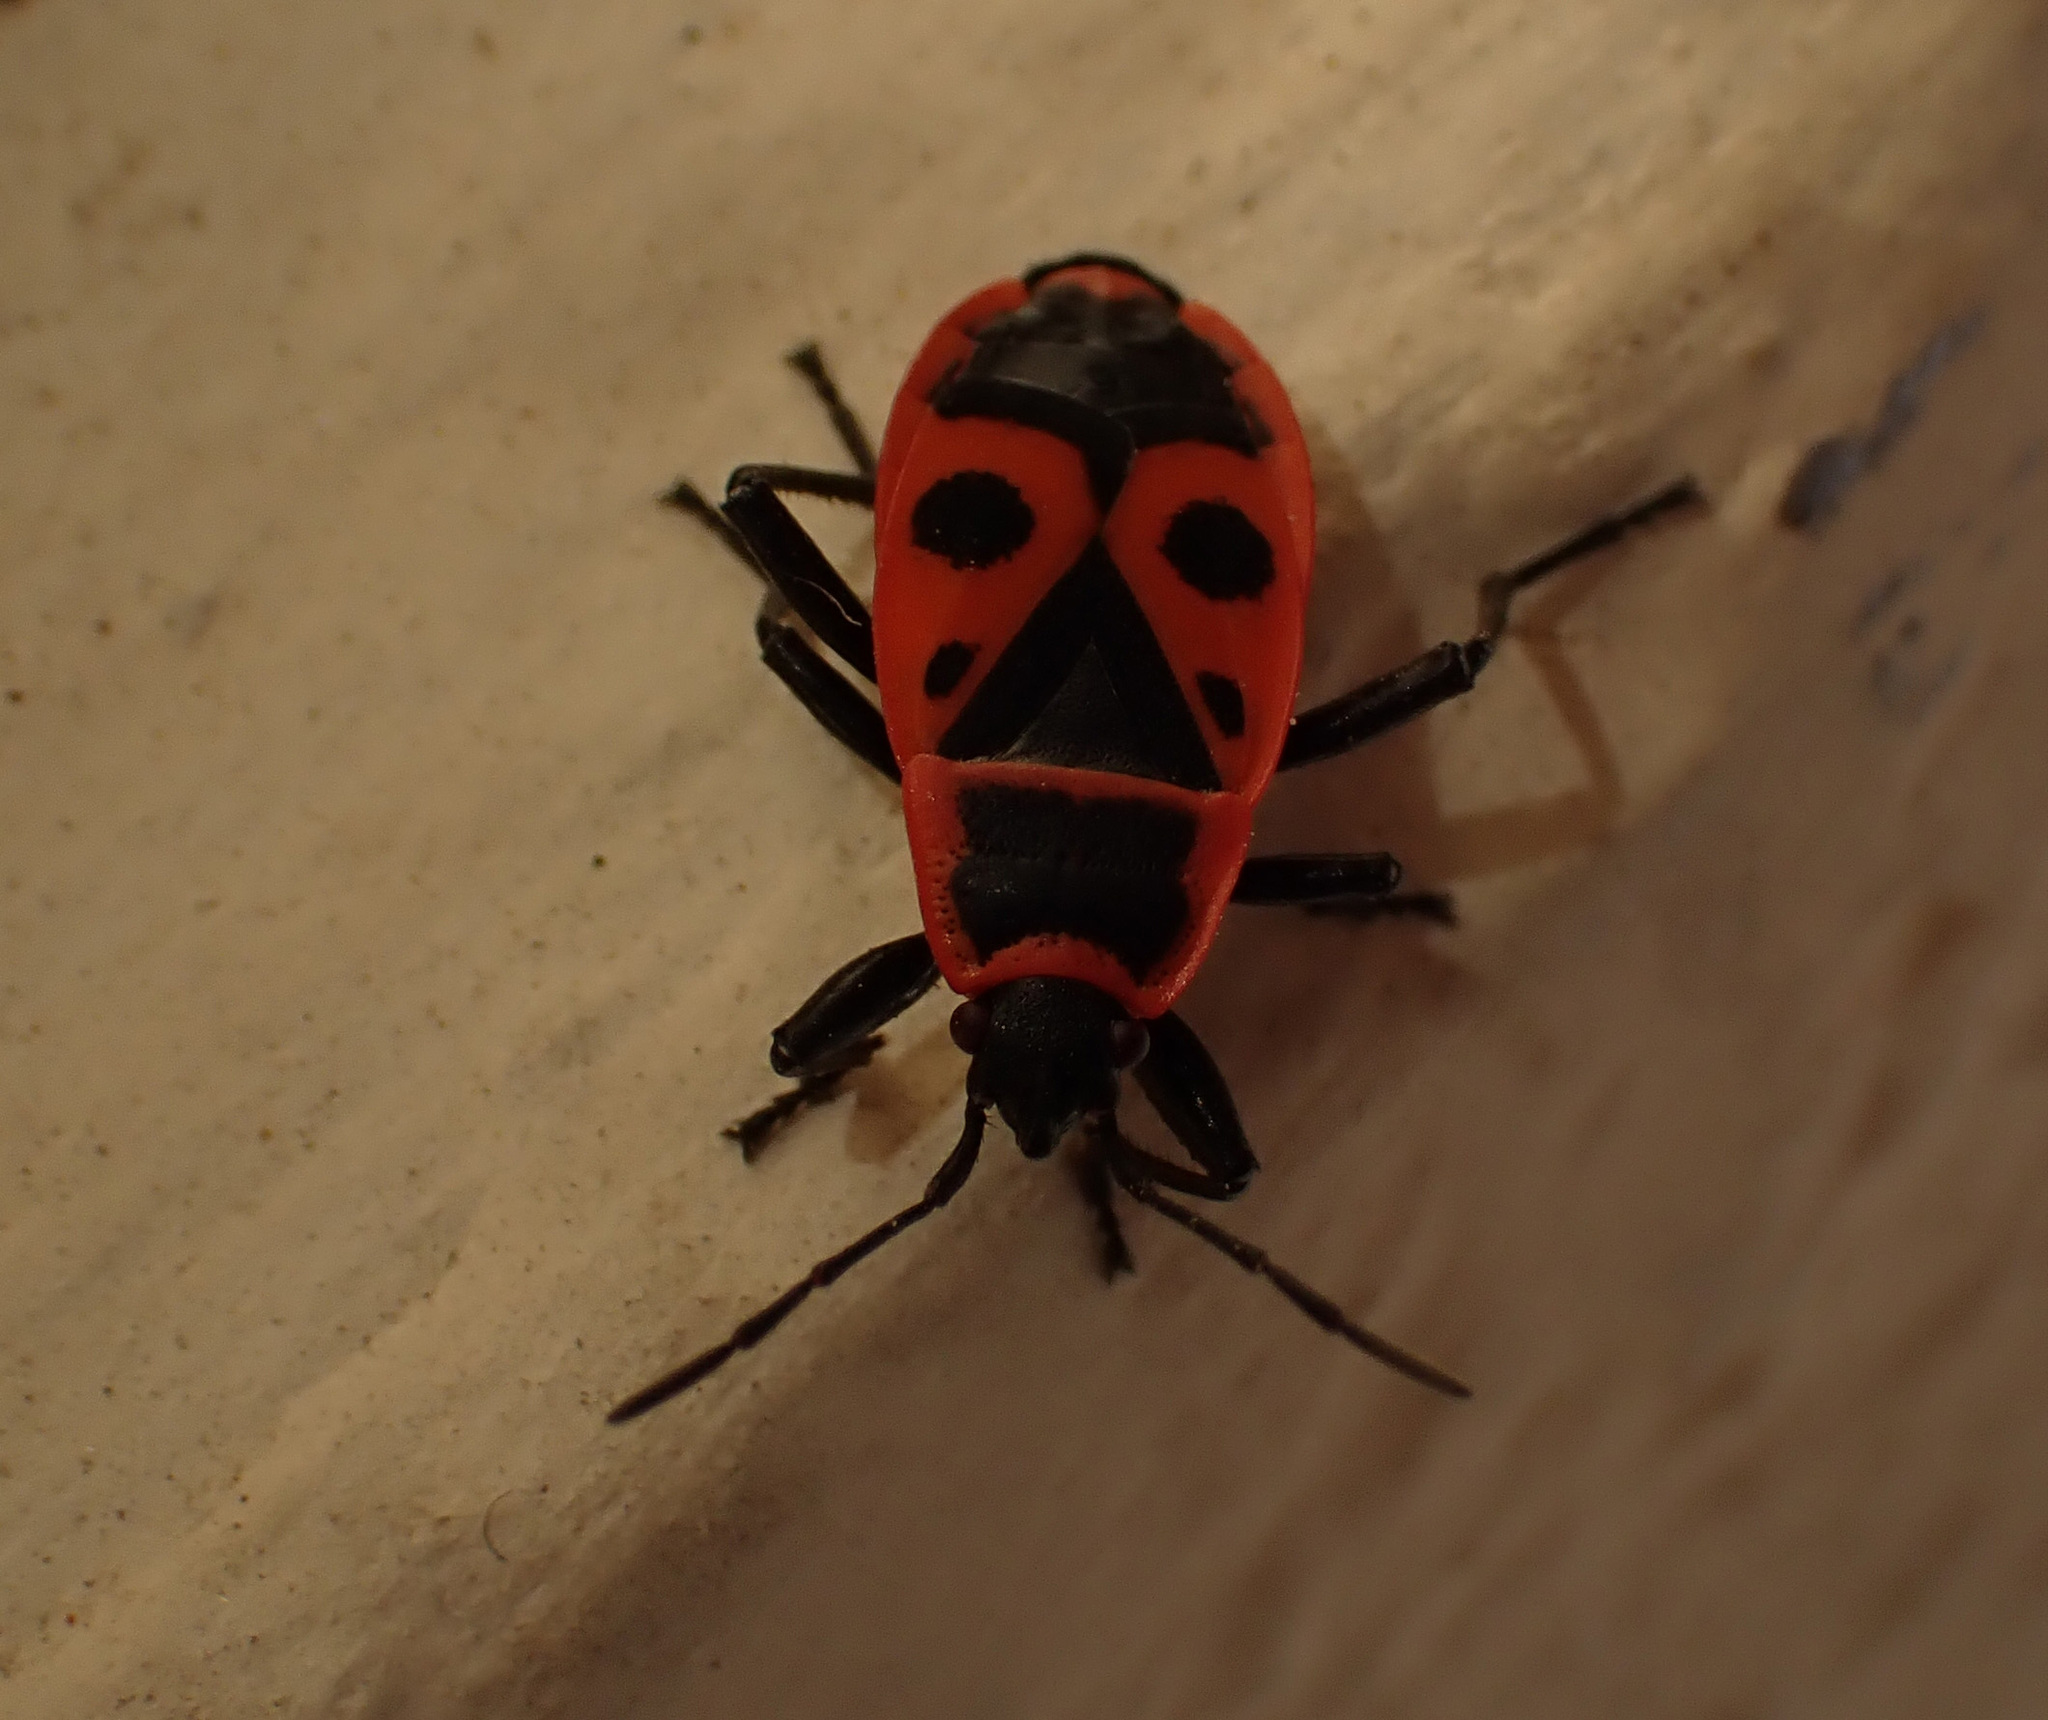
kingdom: Animalia
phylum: Arthropoda
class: Insecta
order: Hemiptera
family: Pyrrhocoridae
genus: Pyrrhocoris
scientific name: Pyrrhocoris apterus
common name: Firebug
